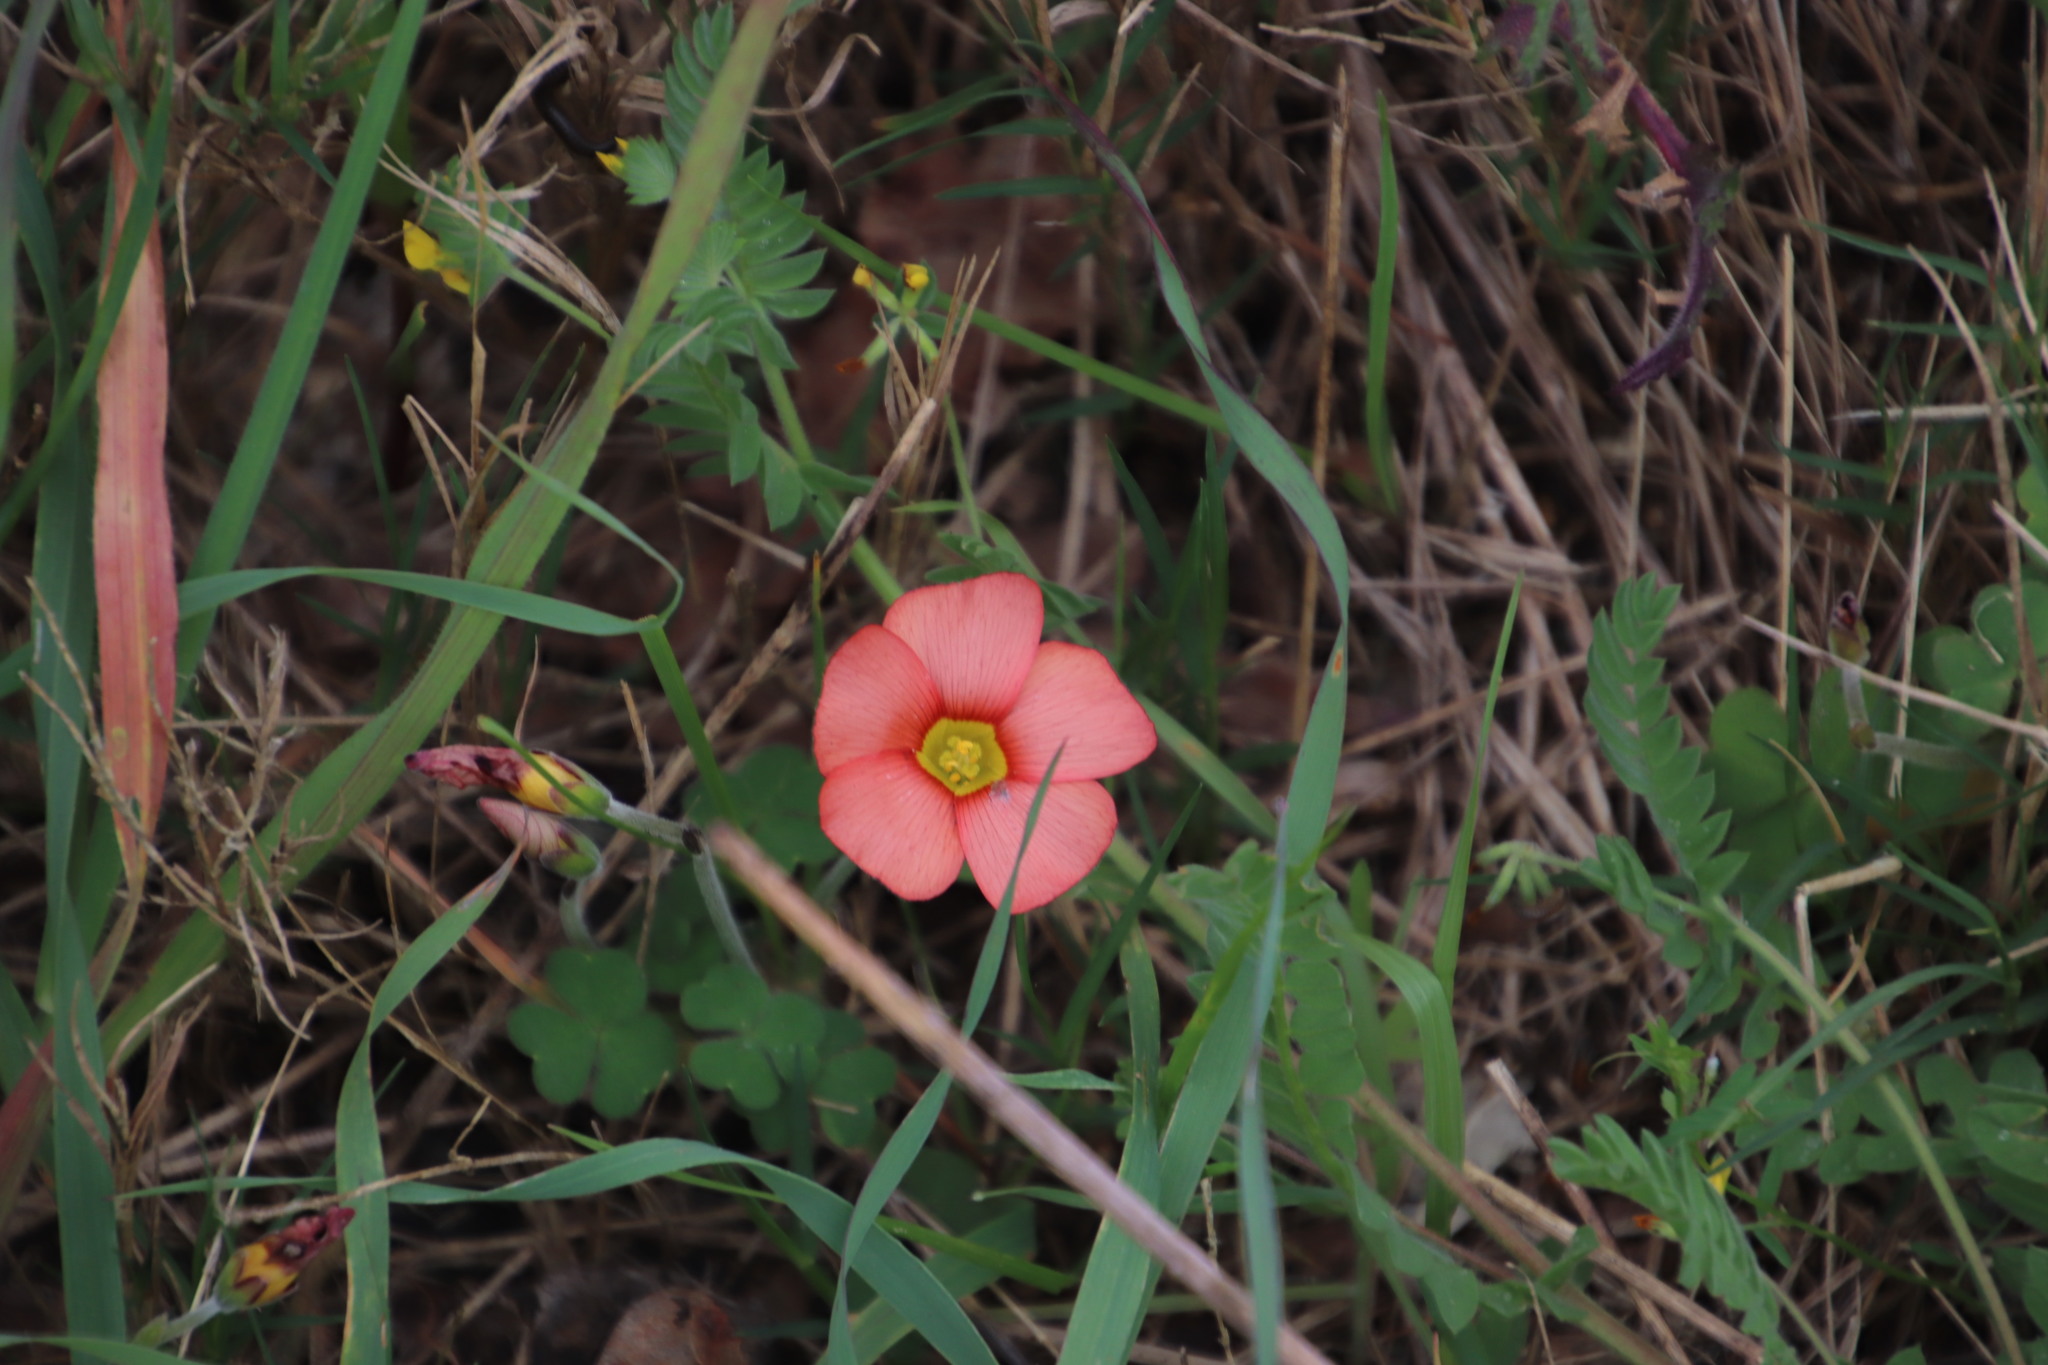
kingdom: Plantae
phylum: Tracheophyta
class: Magnoliopsida
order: Oxalidales
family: Oxalidaceae
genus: Oxalis
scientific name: Oxalis obtusa
